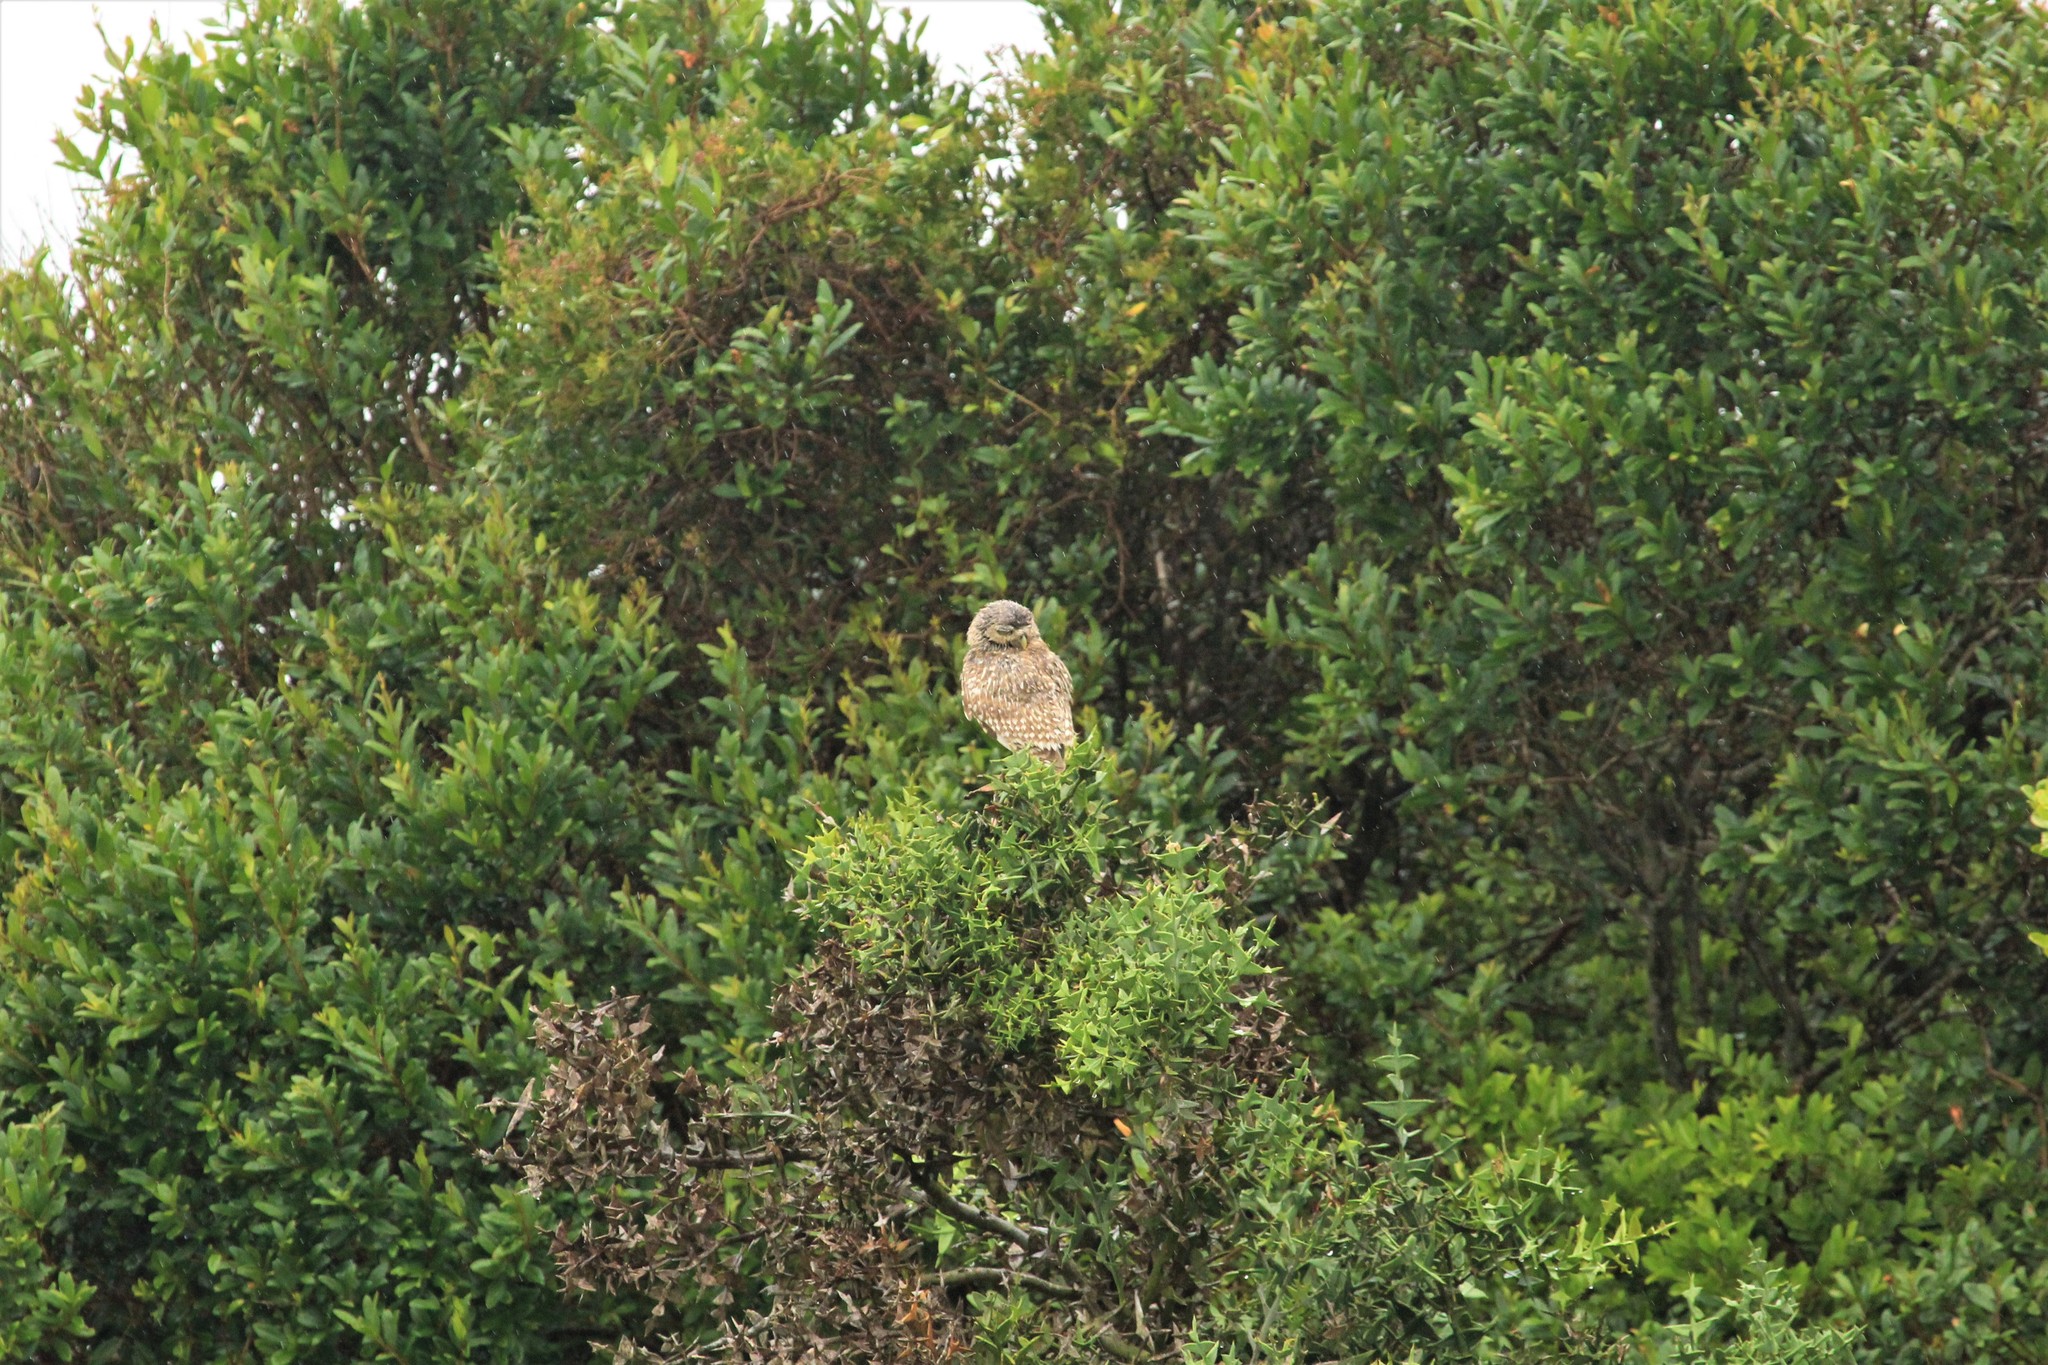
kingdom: Animalia
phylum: Chordata
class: Aves
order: Strigiformes
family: Strigidae
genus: Athene
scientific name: Athene cunicularia
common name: Burrowing owl
